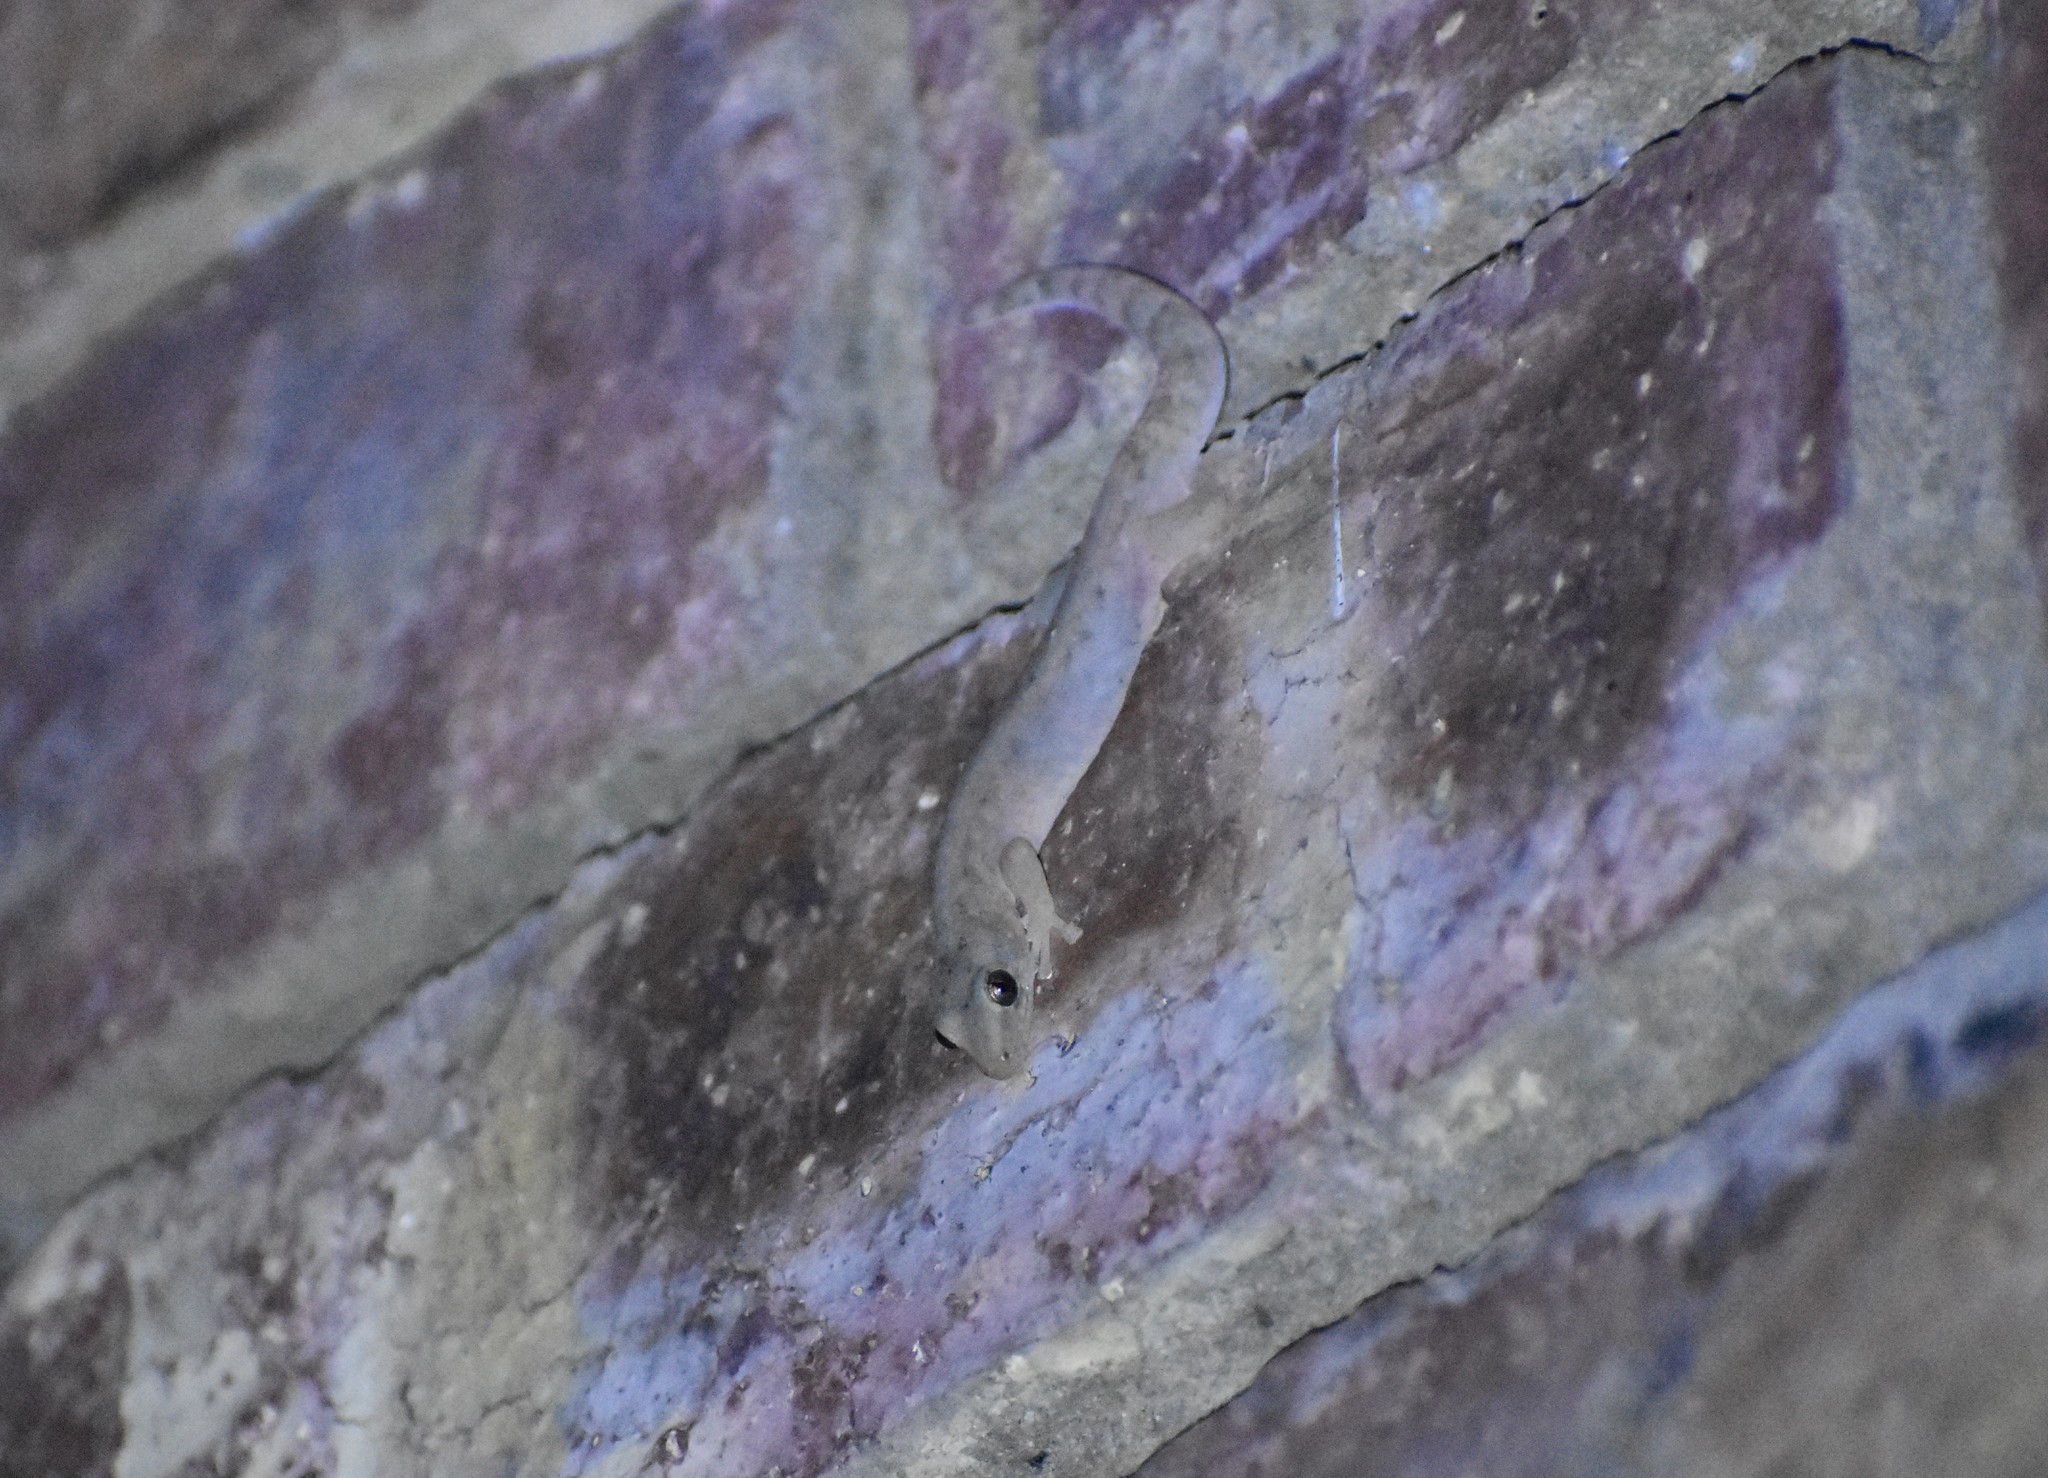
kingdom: Animalia
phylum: Chordata
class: Squamata
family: Gekkonidae
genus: Hemidactylus
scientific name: Hemidactylus mabouia
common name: House gecko
